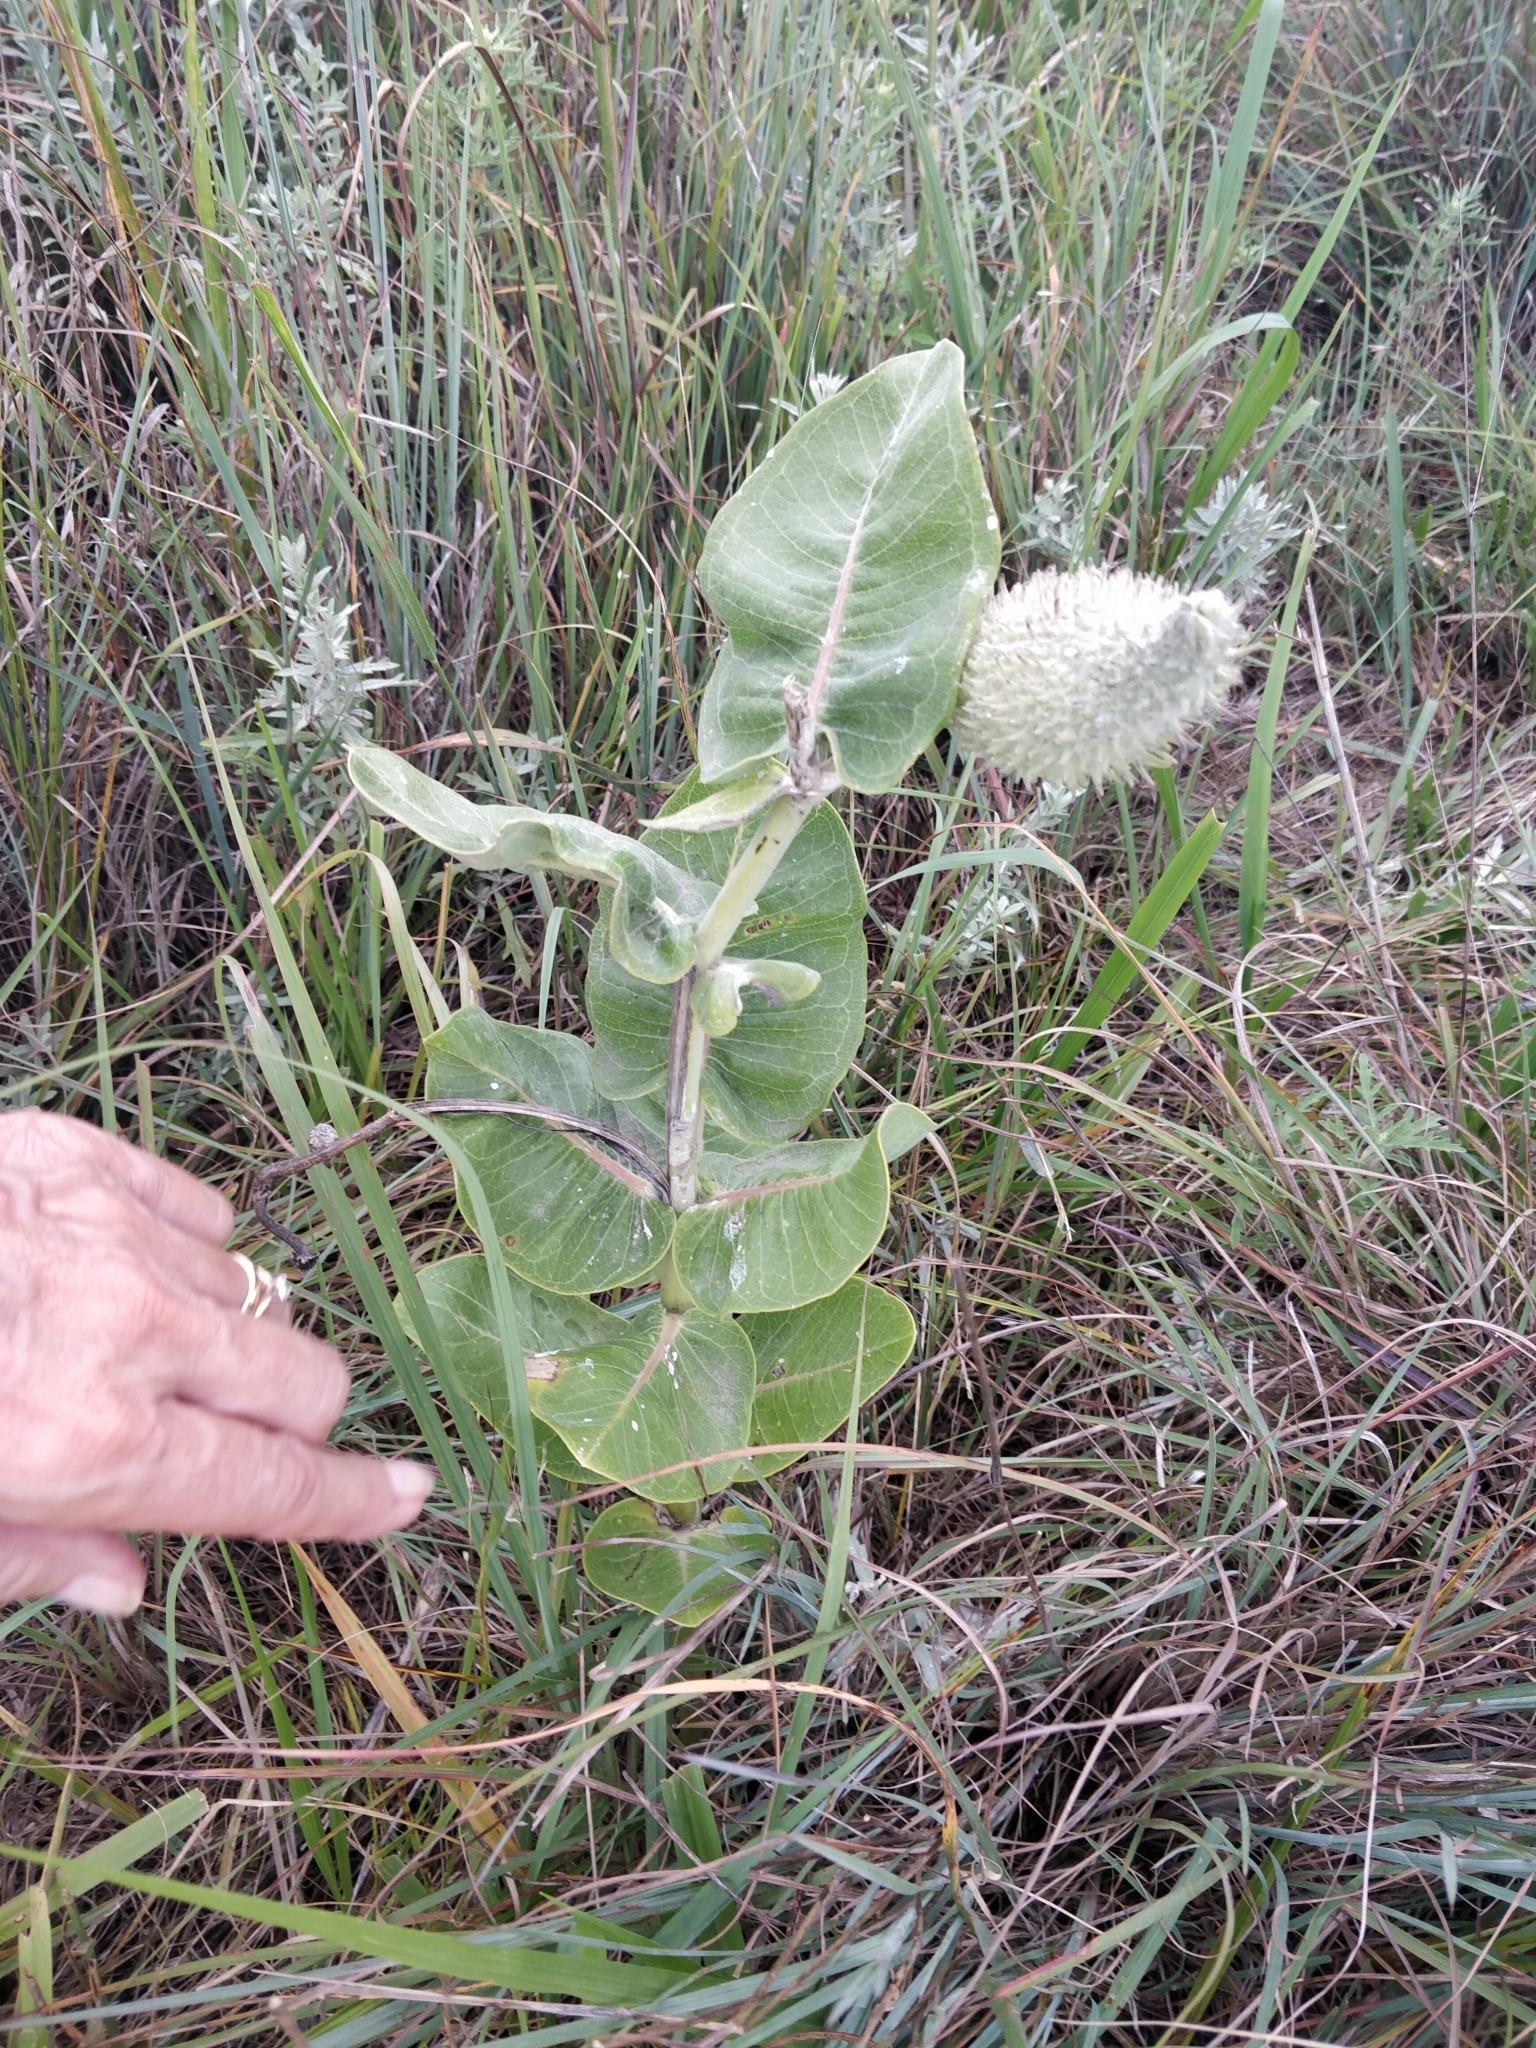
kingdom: Plantae
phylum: Tracheophyta
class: Magnoliopsida
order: Gentianales
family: Apocynaceae
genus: Asclepias
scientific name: Asclepias speciosa
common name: Showy milkweed
